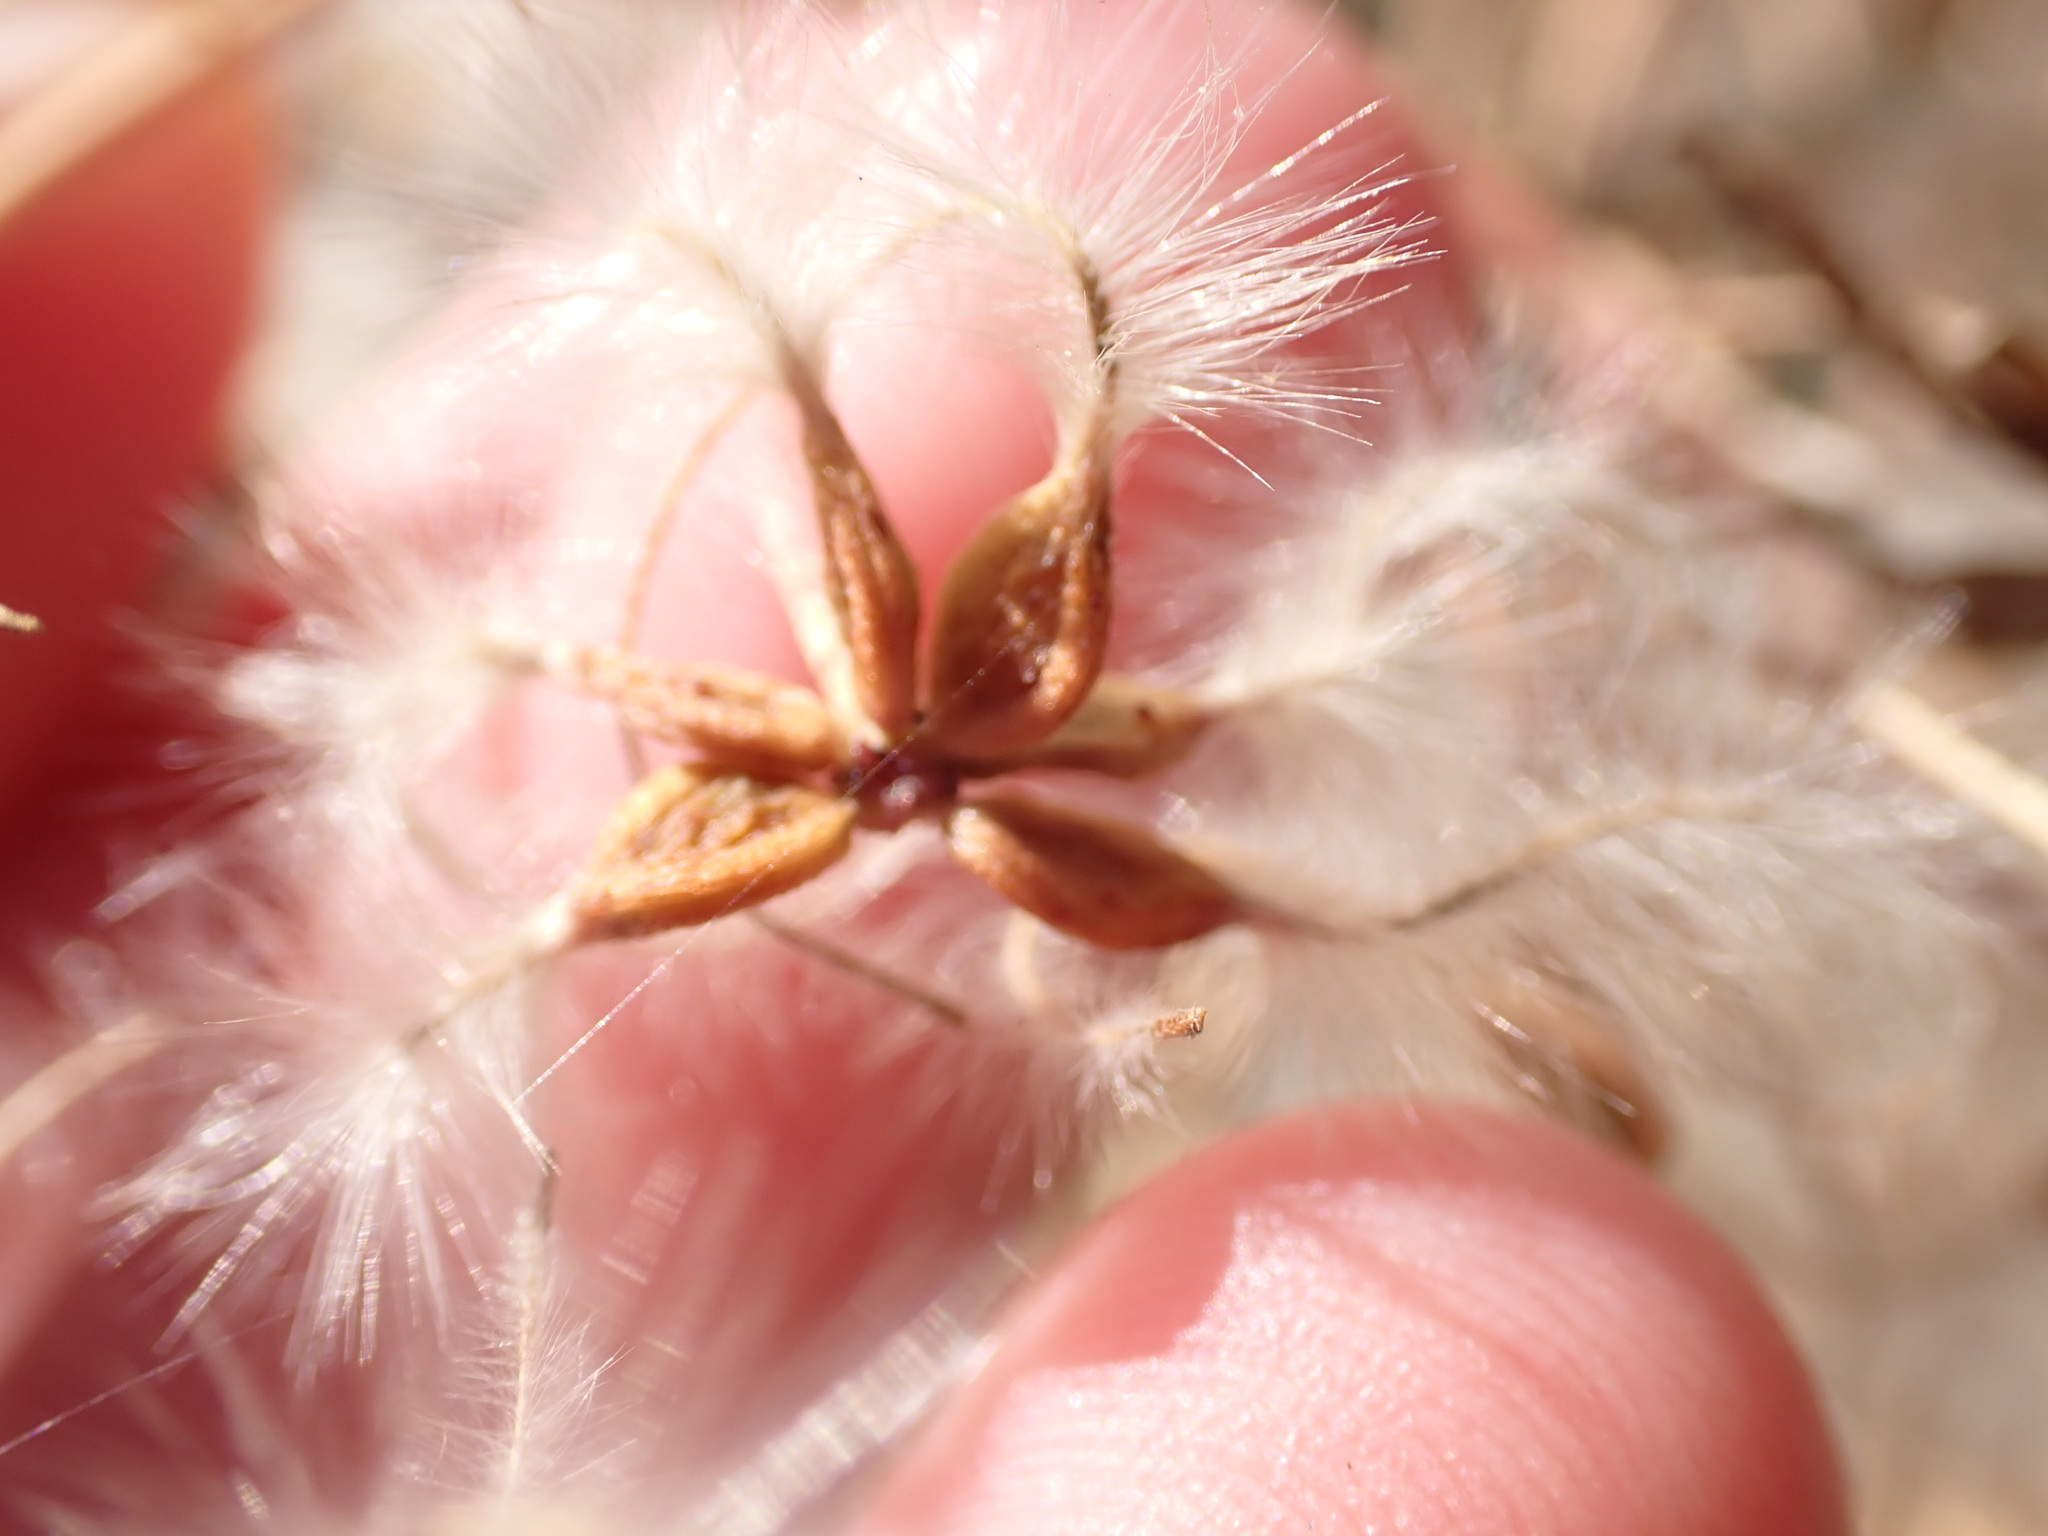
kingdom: Plantae
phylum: Tracheophyta
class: Magnoliopsida
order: Ranunculales
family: Ranunculaceae
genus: Clematis
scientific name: Clematis flammula
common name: Virgin's-bower
